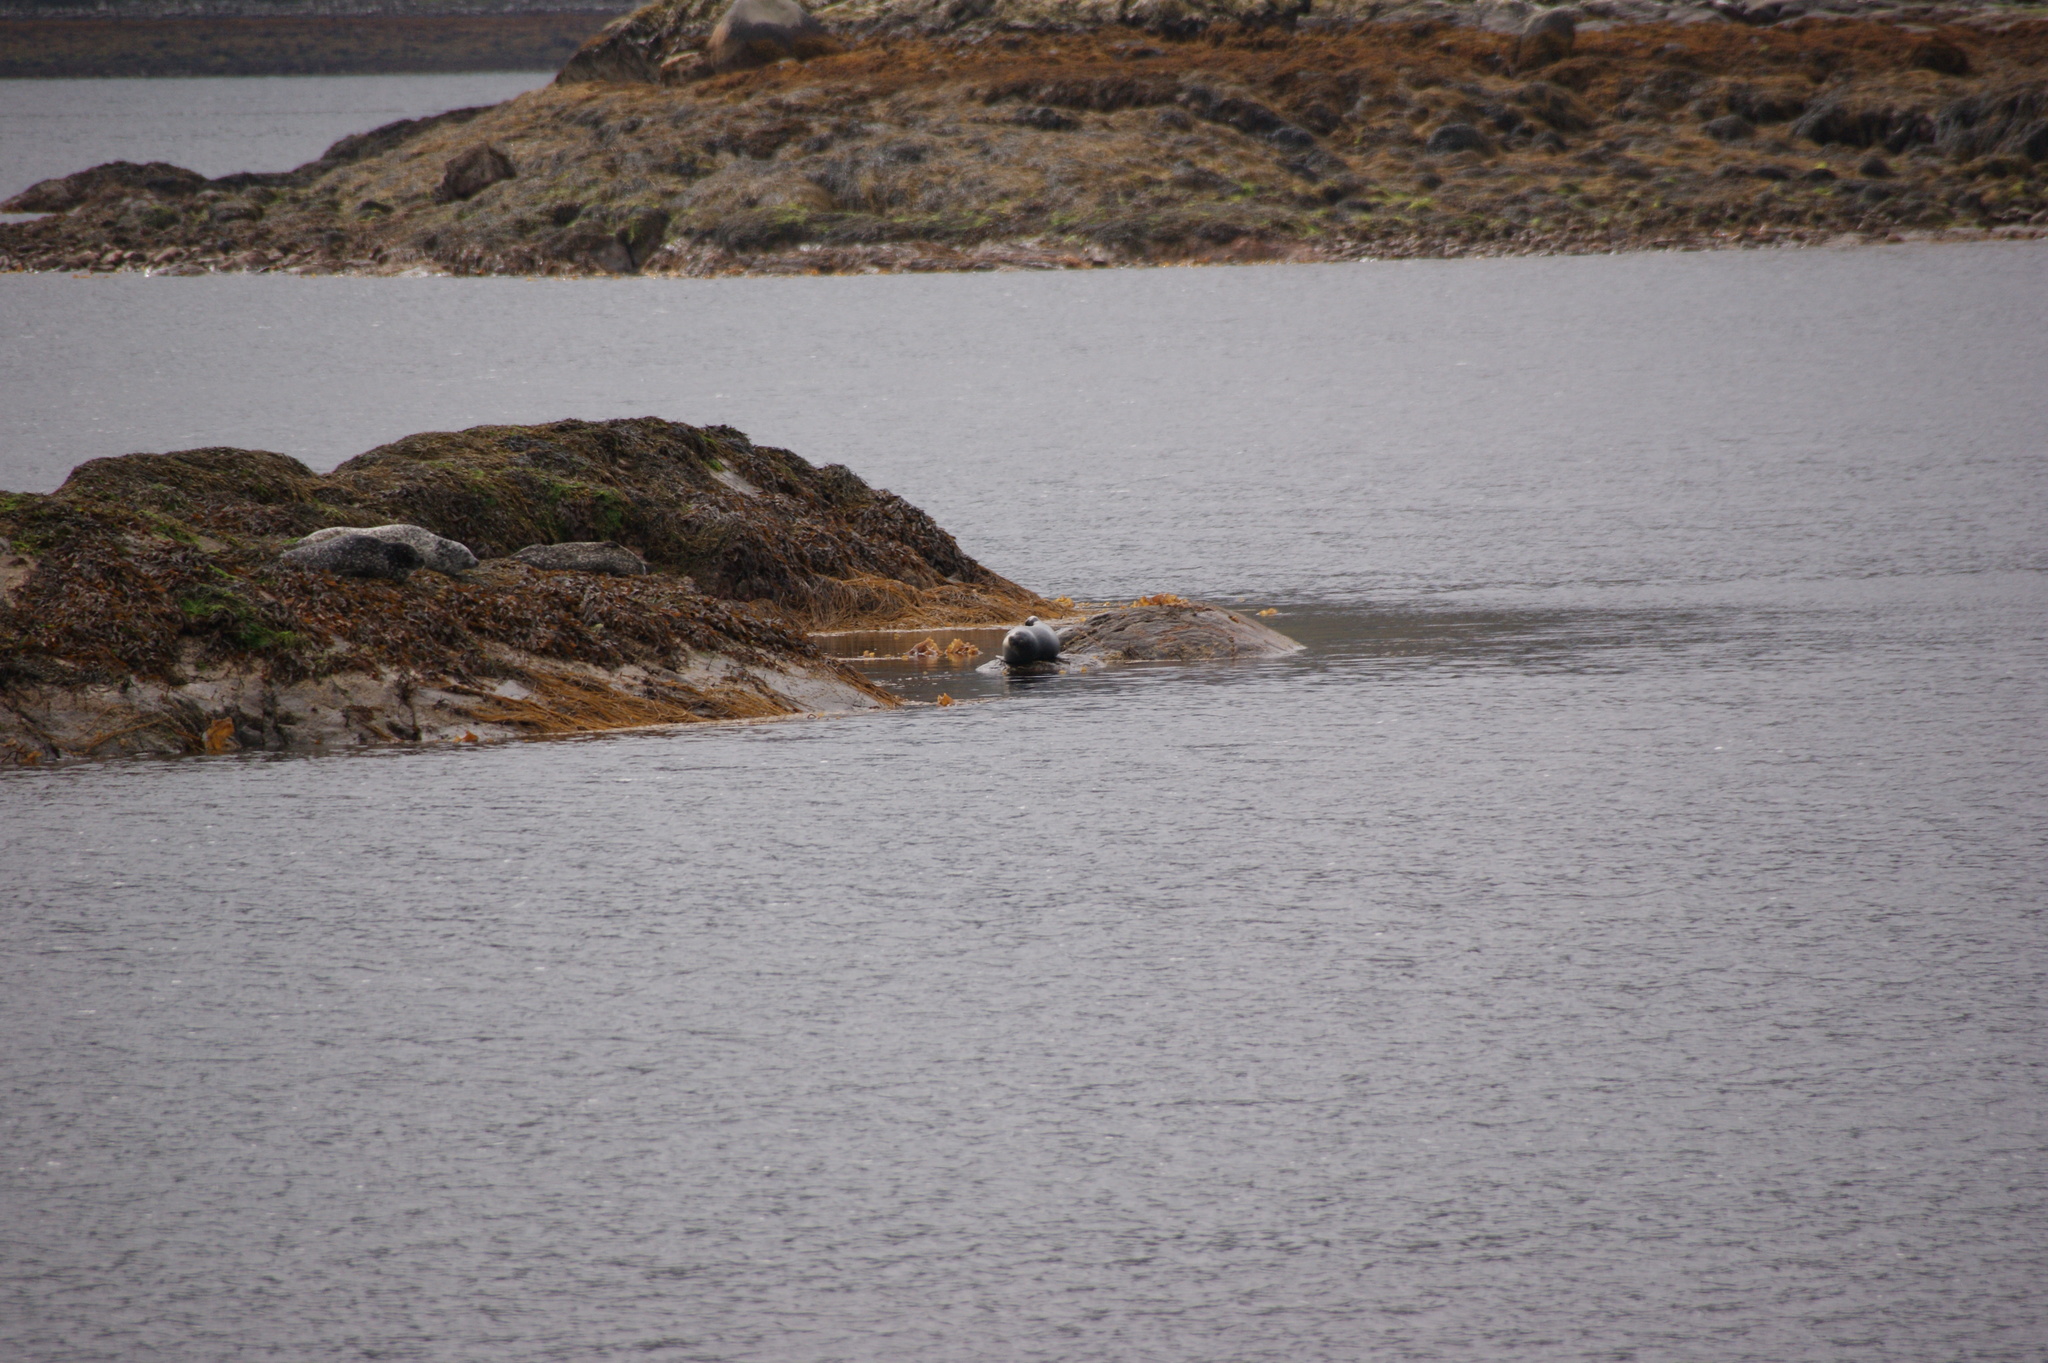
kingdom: Animalia
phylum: Chordata
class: Mammalia
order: Carnivora
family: Phocidae
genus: Phoca
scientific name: Phoca vitulina
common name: Harbor seal
